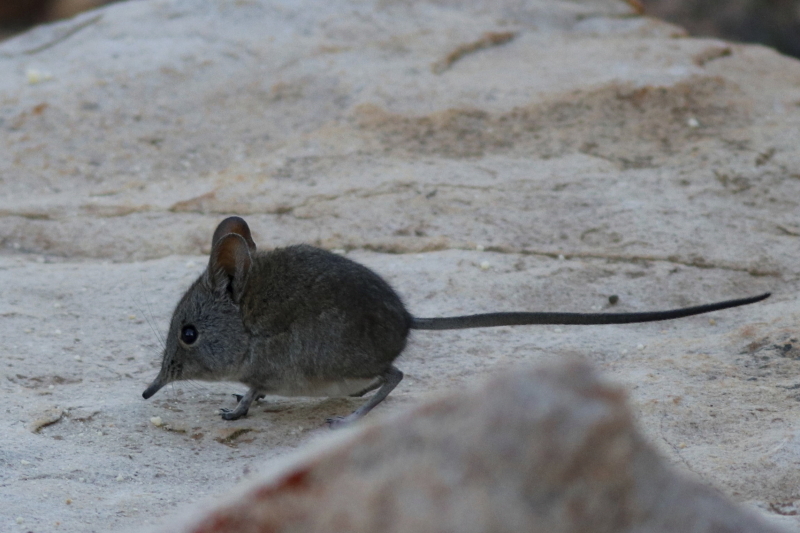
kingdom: Animalia
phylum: Chordata
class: Mammalia
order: Macroscelidea
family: Macroscelididae
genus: Elephantulus
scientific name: Elephantulus edwardii
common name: Cape elephant shrew
